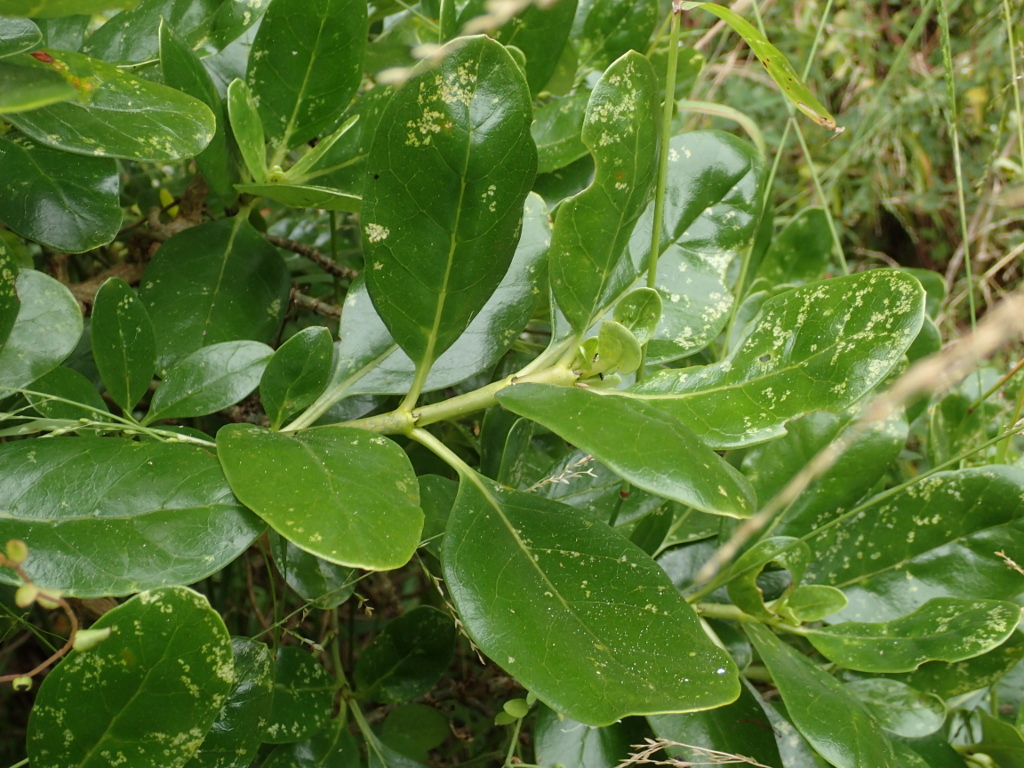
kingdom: Plantae
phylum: Tracheophyta
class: Magnoliopsida
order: Gentianales
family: Rubiaceae
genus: Coprosma
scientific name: Coprosma repens
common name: Tree bedstraw
